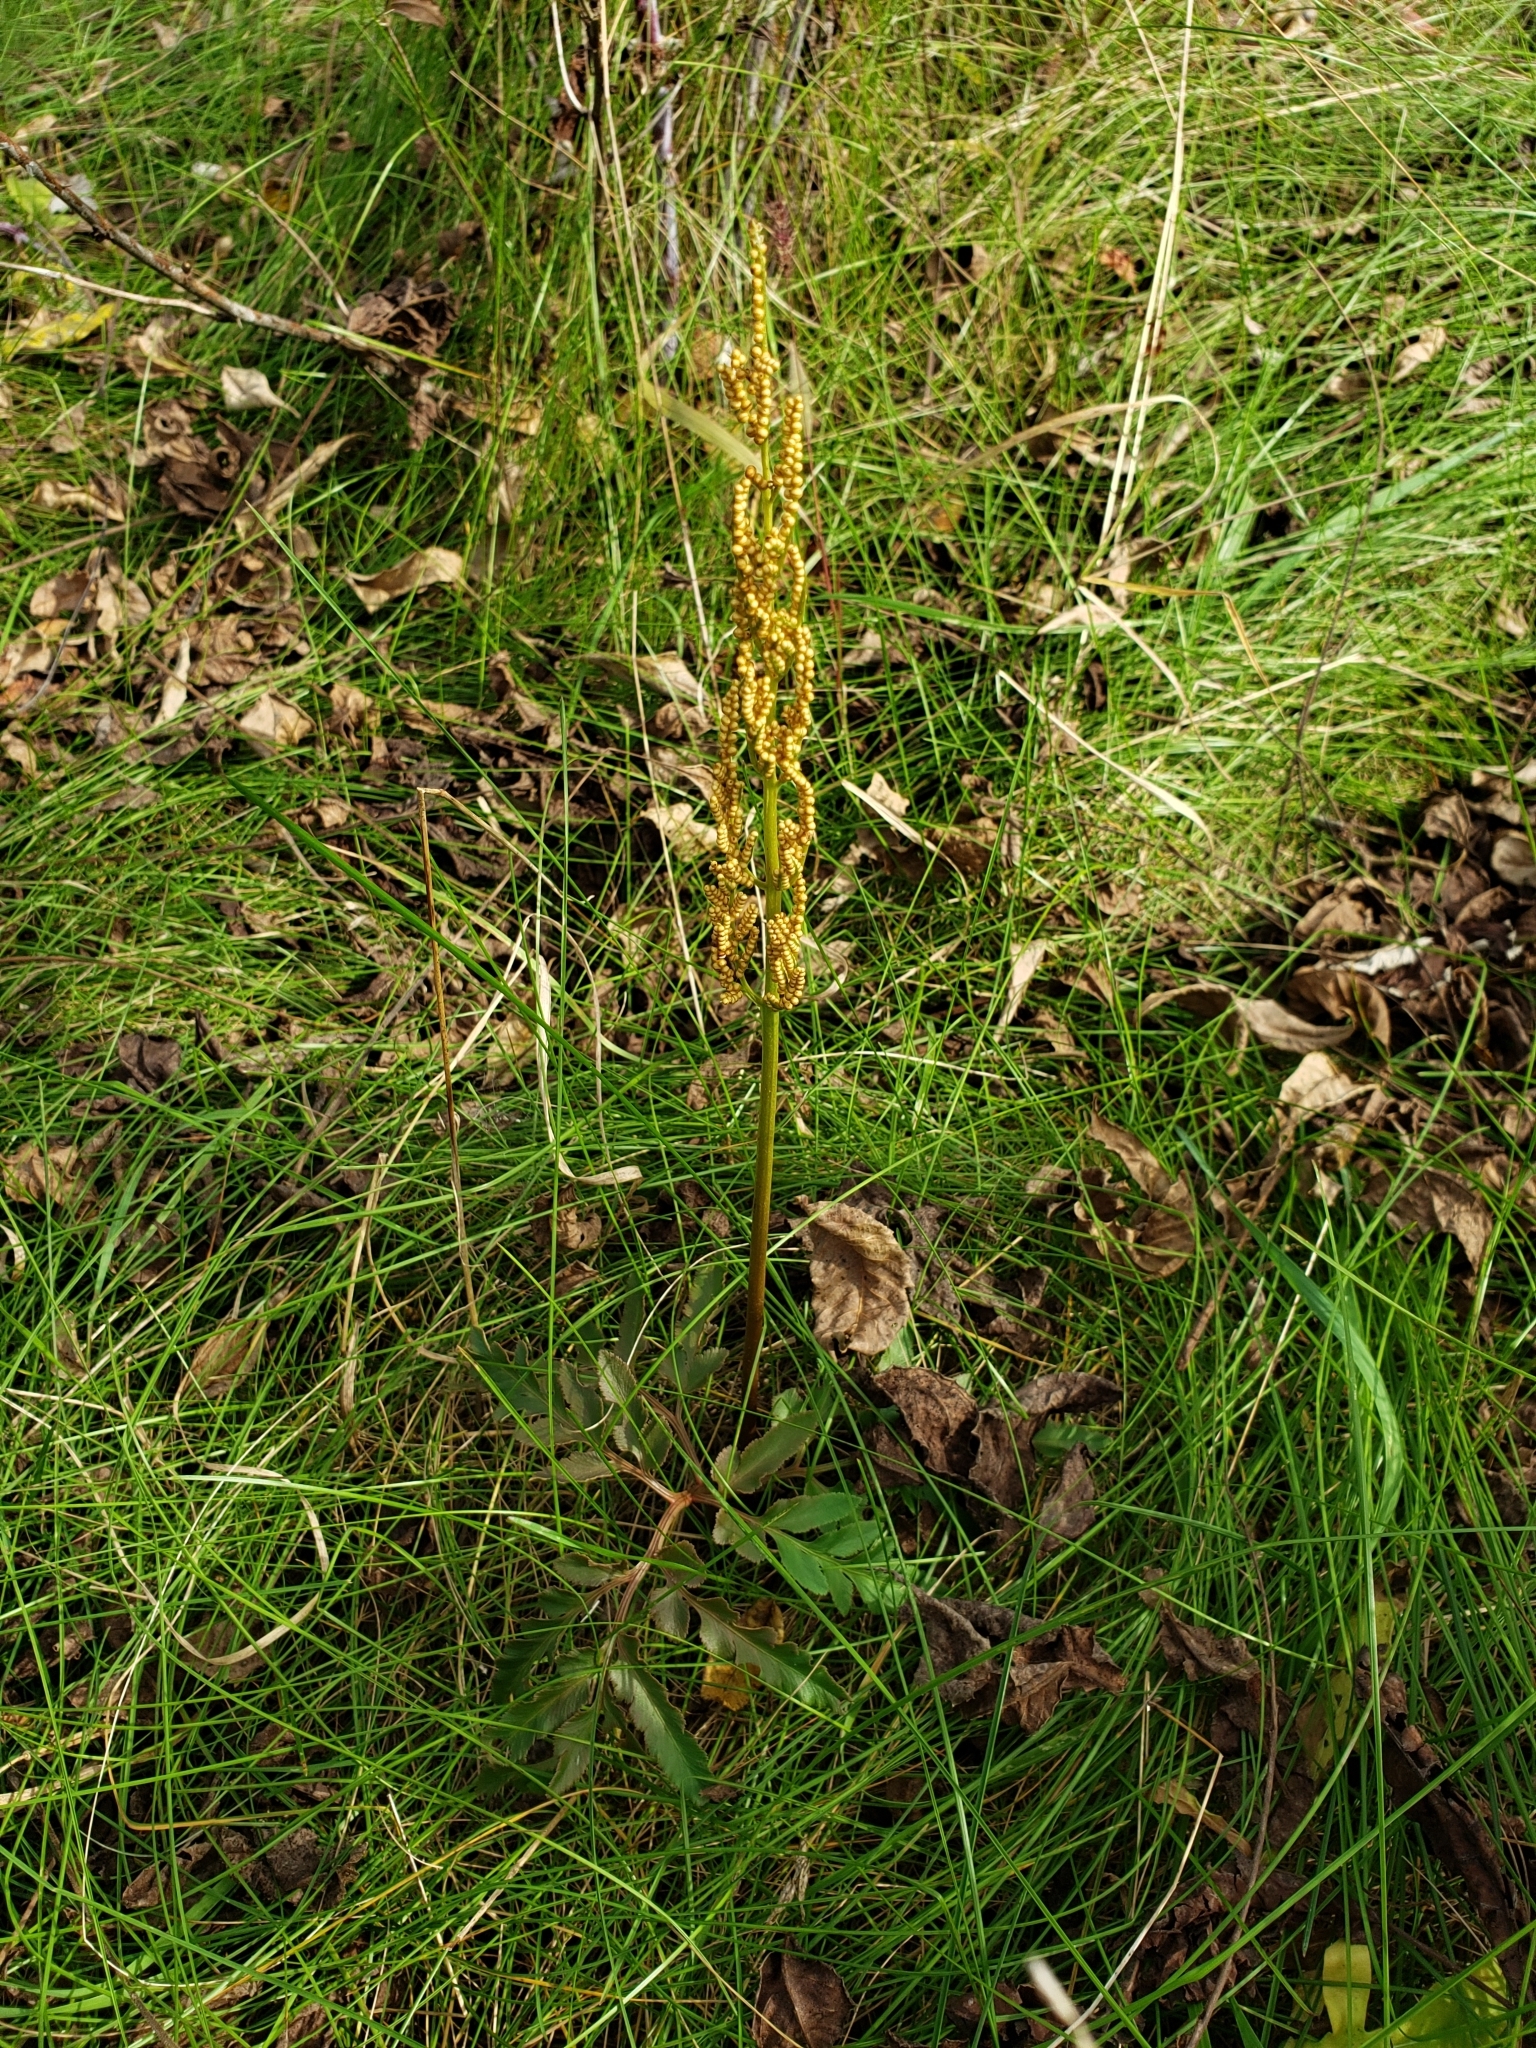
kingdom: Plantae
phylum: Tracheophyta
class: Polypodiopsida
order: Ophioglossales
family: Ophioglossaceae
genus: Sceptridium
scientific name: Sceptridium dissectum
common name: Cut-leaved grapefern
